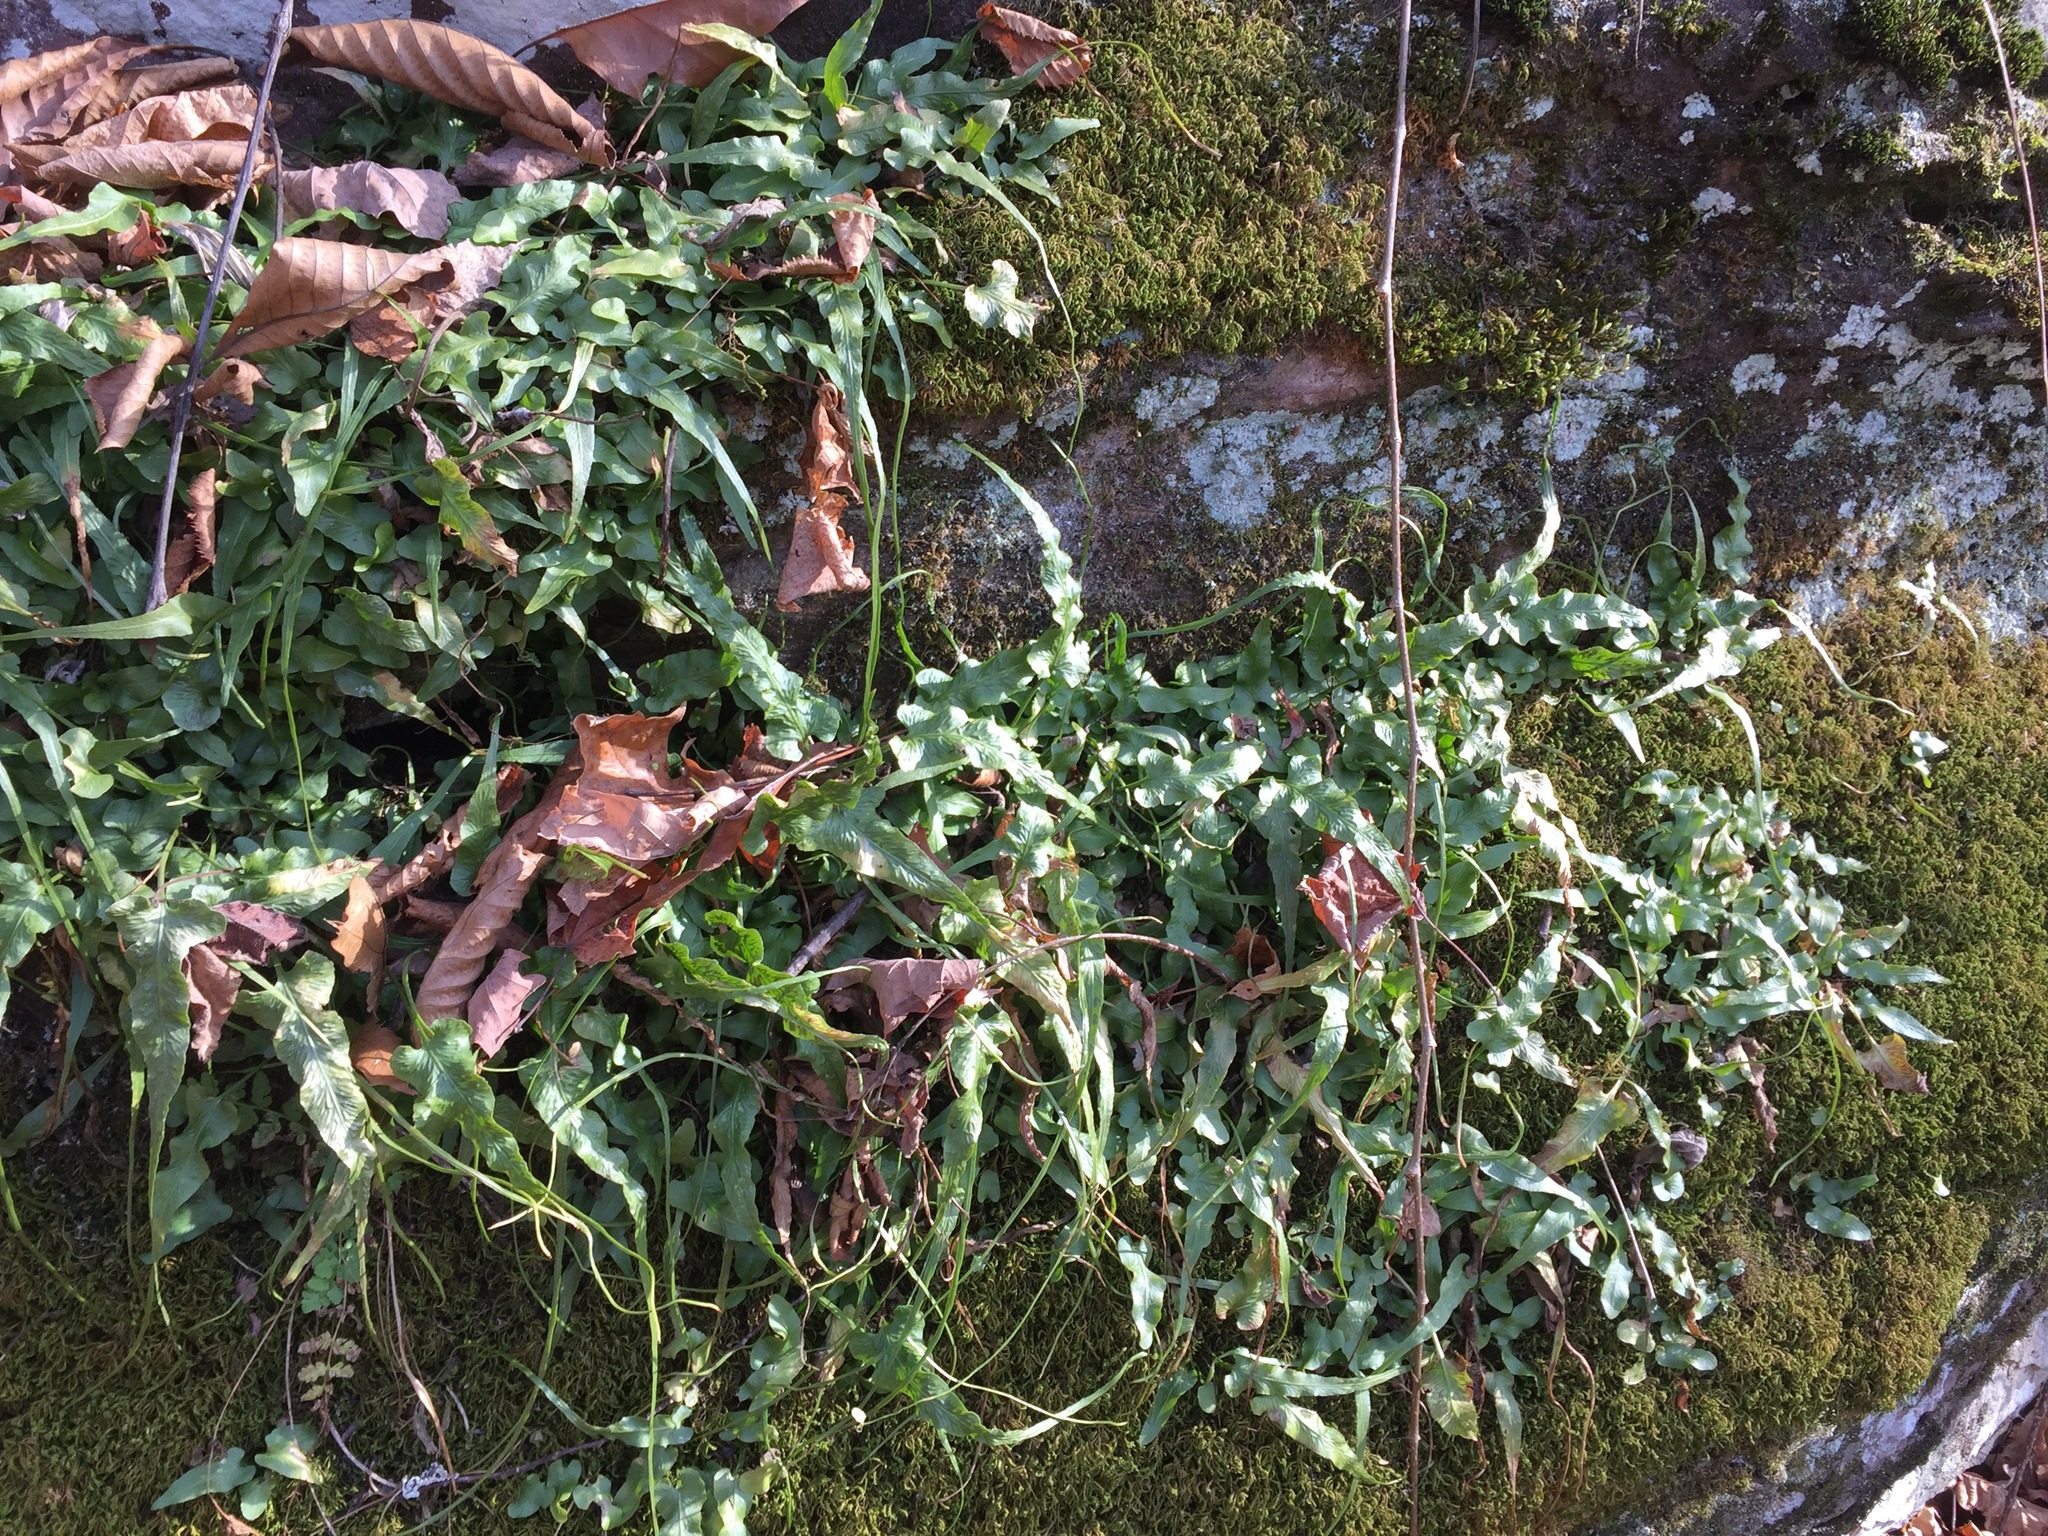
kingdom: Plantae
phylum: Tracheophyta
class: Polypodiopsida
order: Polypodiales
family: Aspleniaceae
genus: Asplenium
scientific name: Asplenium rhizophyllum
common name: Walking fern
